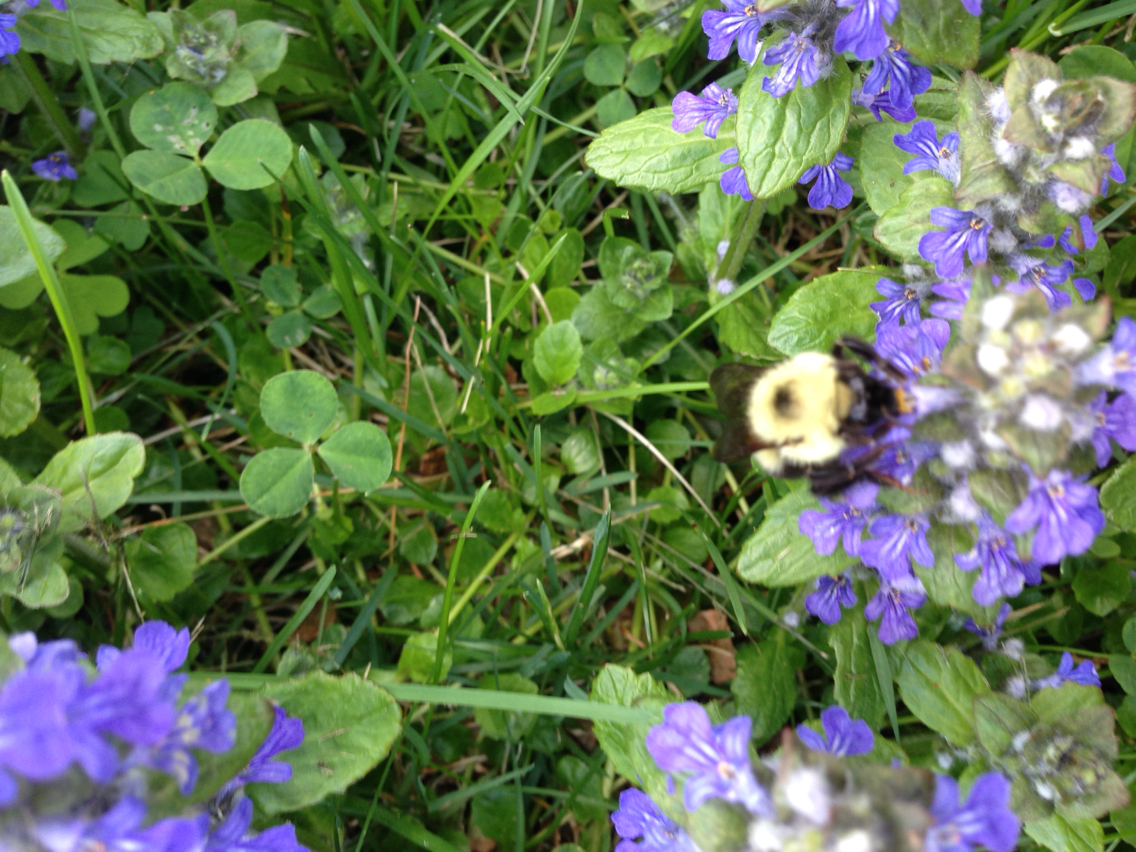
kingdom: Animalia
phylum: Arthropoda
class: Insecta
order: Hymenoptera
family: Apidae
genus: Bombus
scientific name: Bombus bimaculatus
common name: Two-spotted bumble bee
